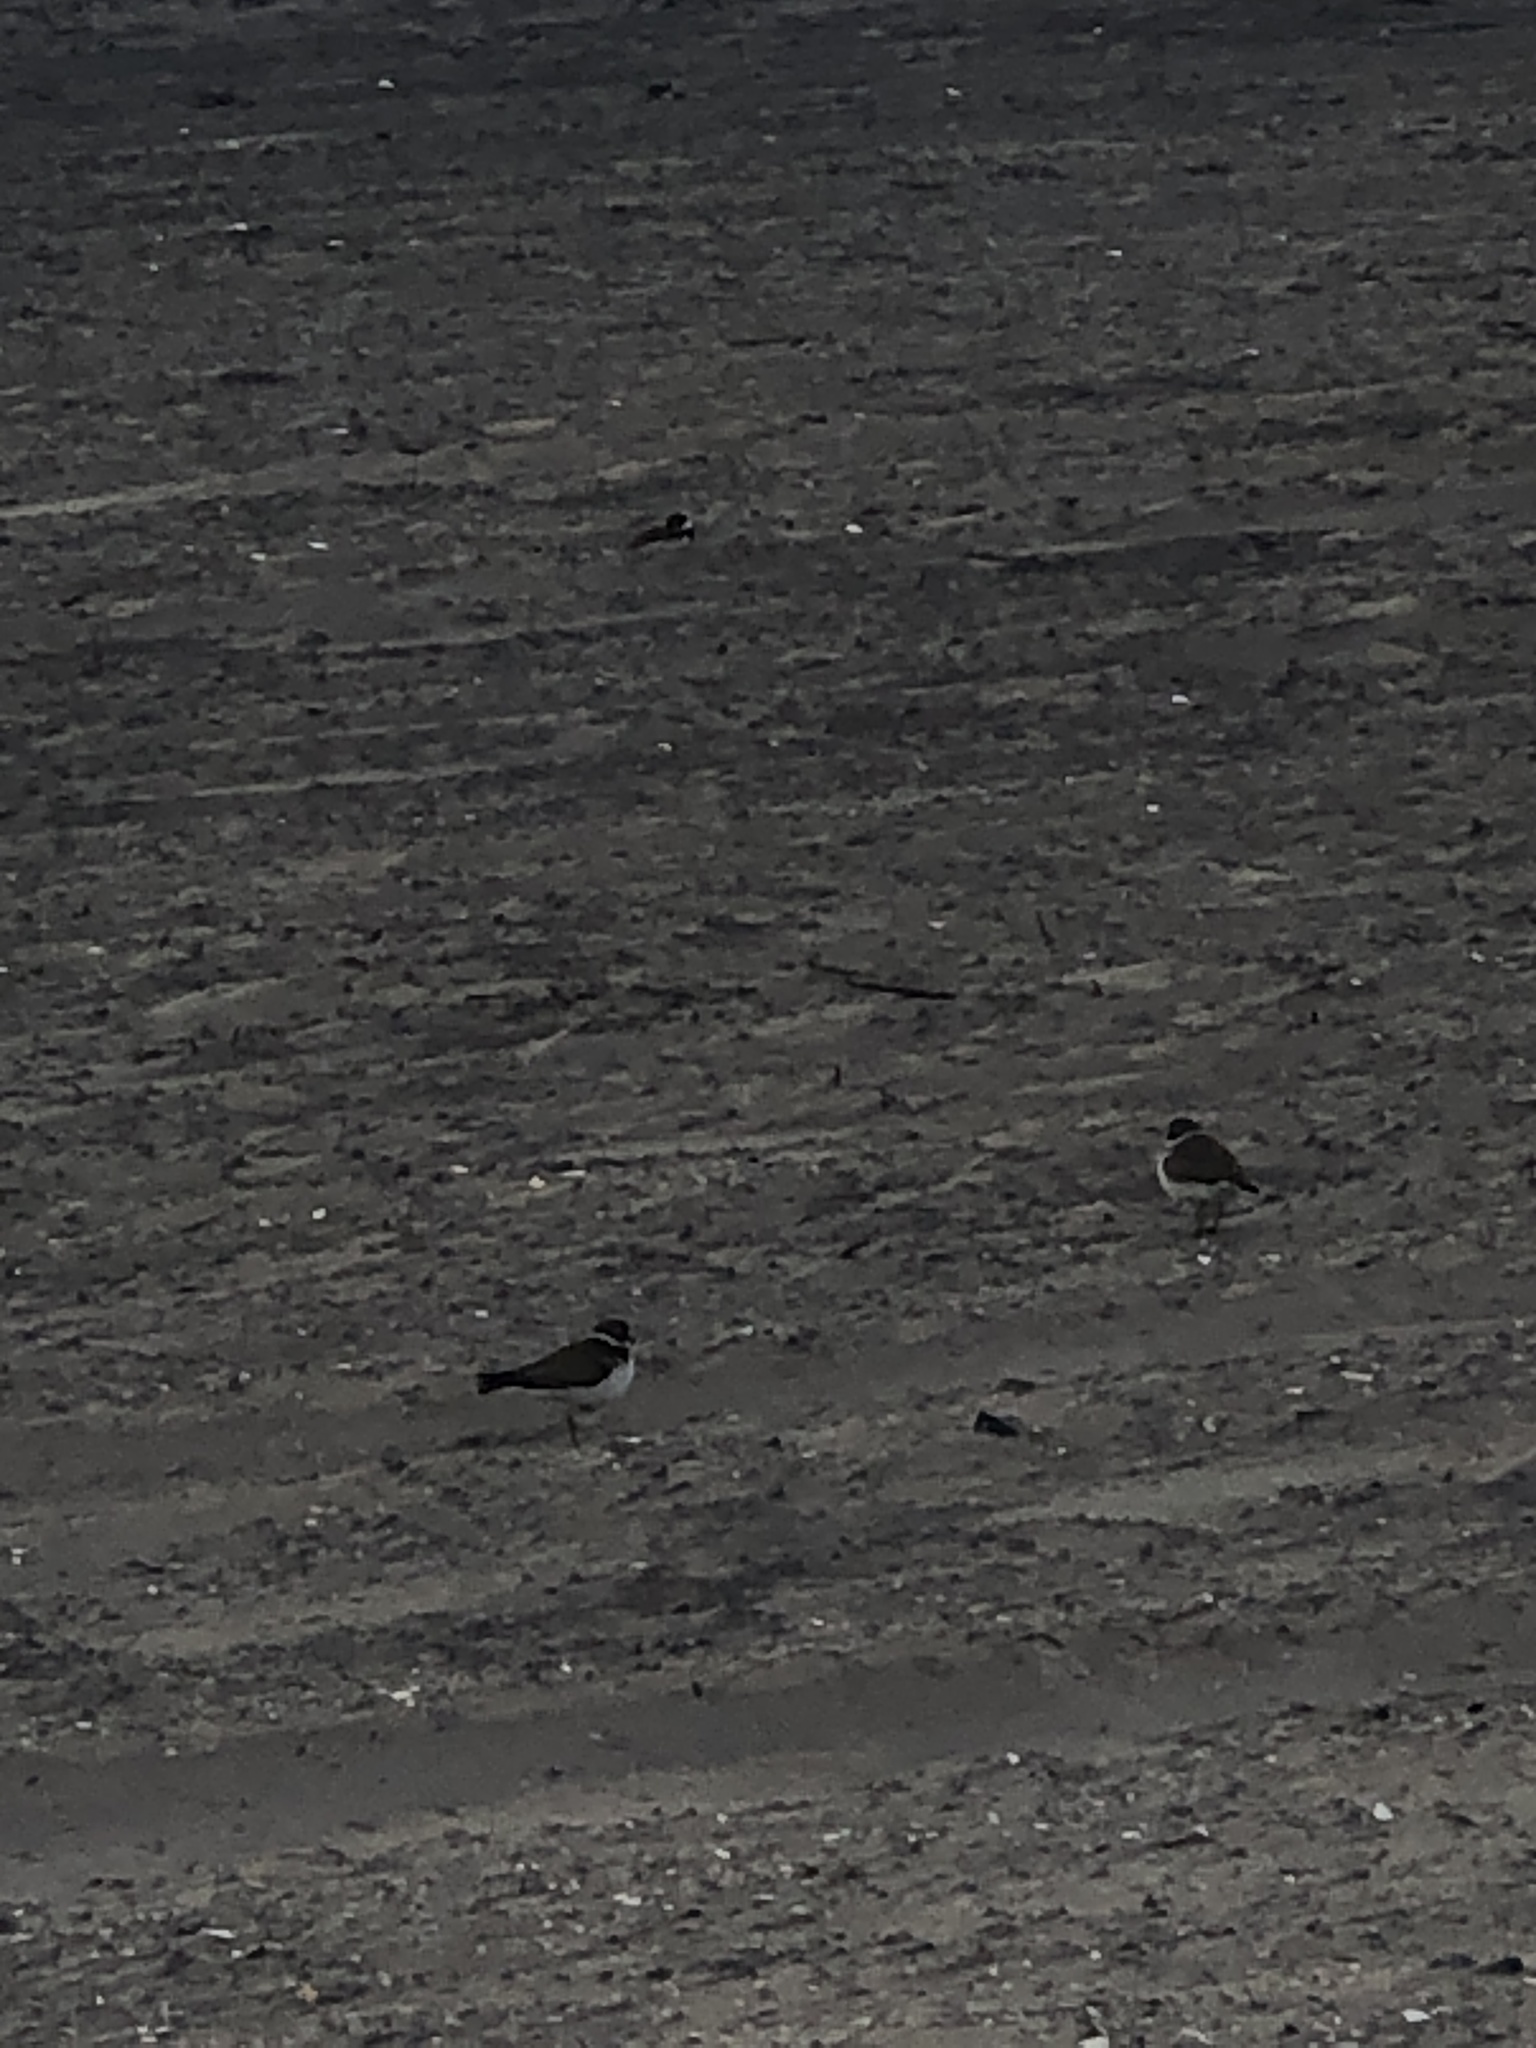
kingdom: Animalia
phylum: Chordata
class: Aves
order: Charadriiformes
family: Charadriidae
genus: Charadrius
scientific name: Charadrius semipalmatus
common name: Semipalmated plover
